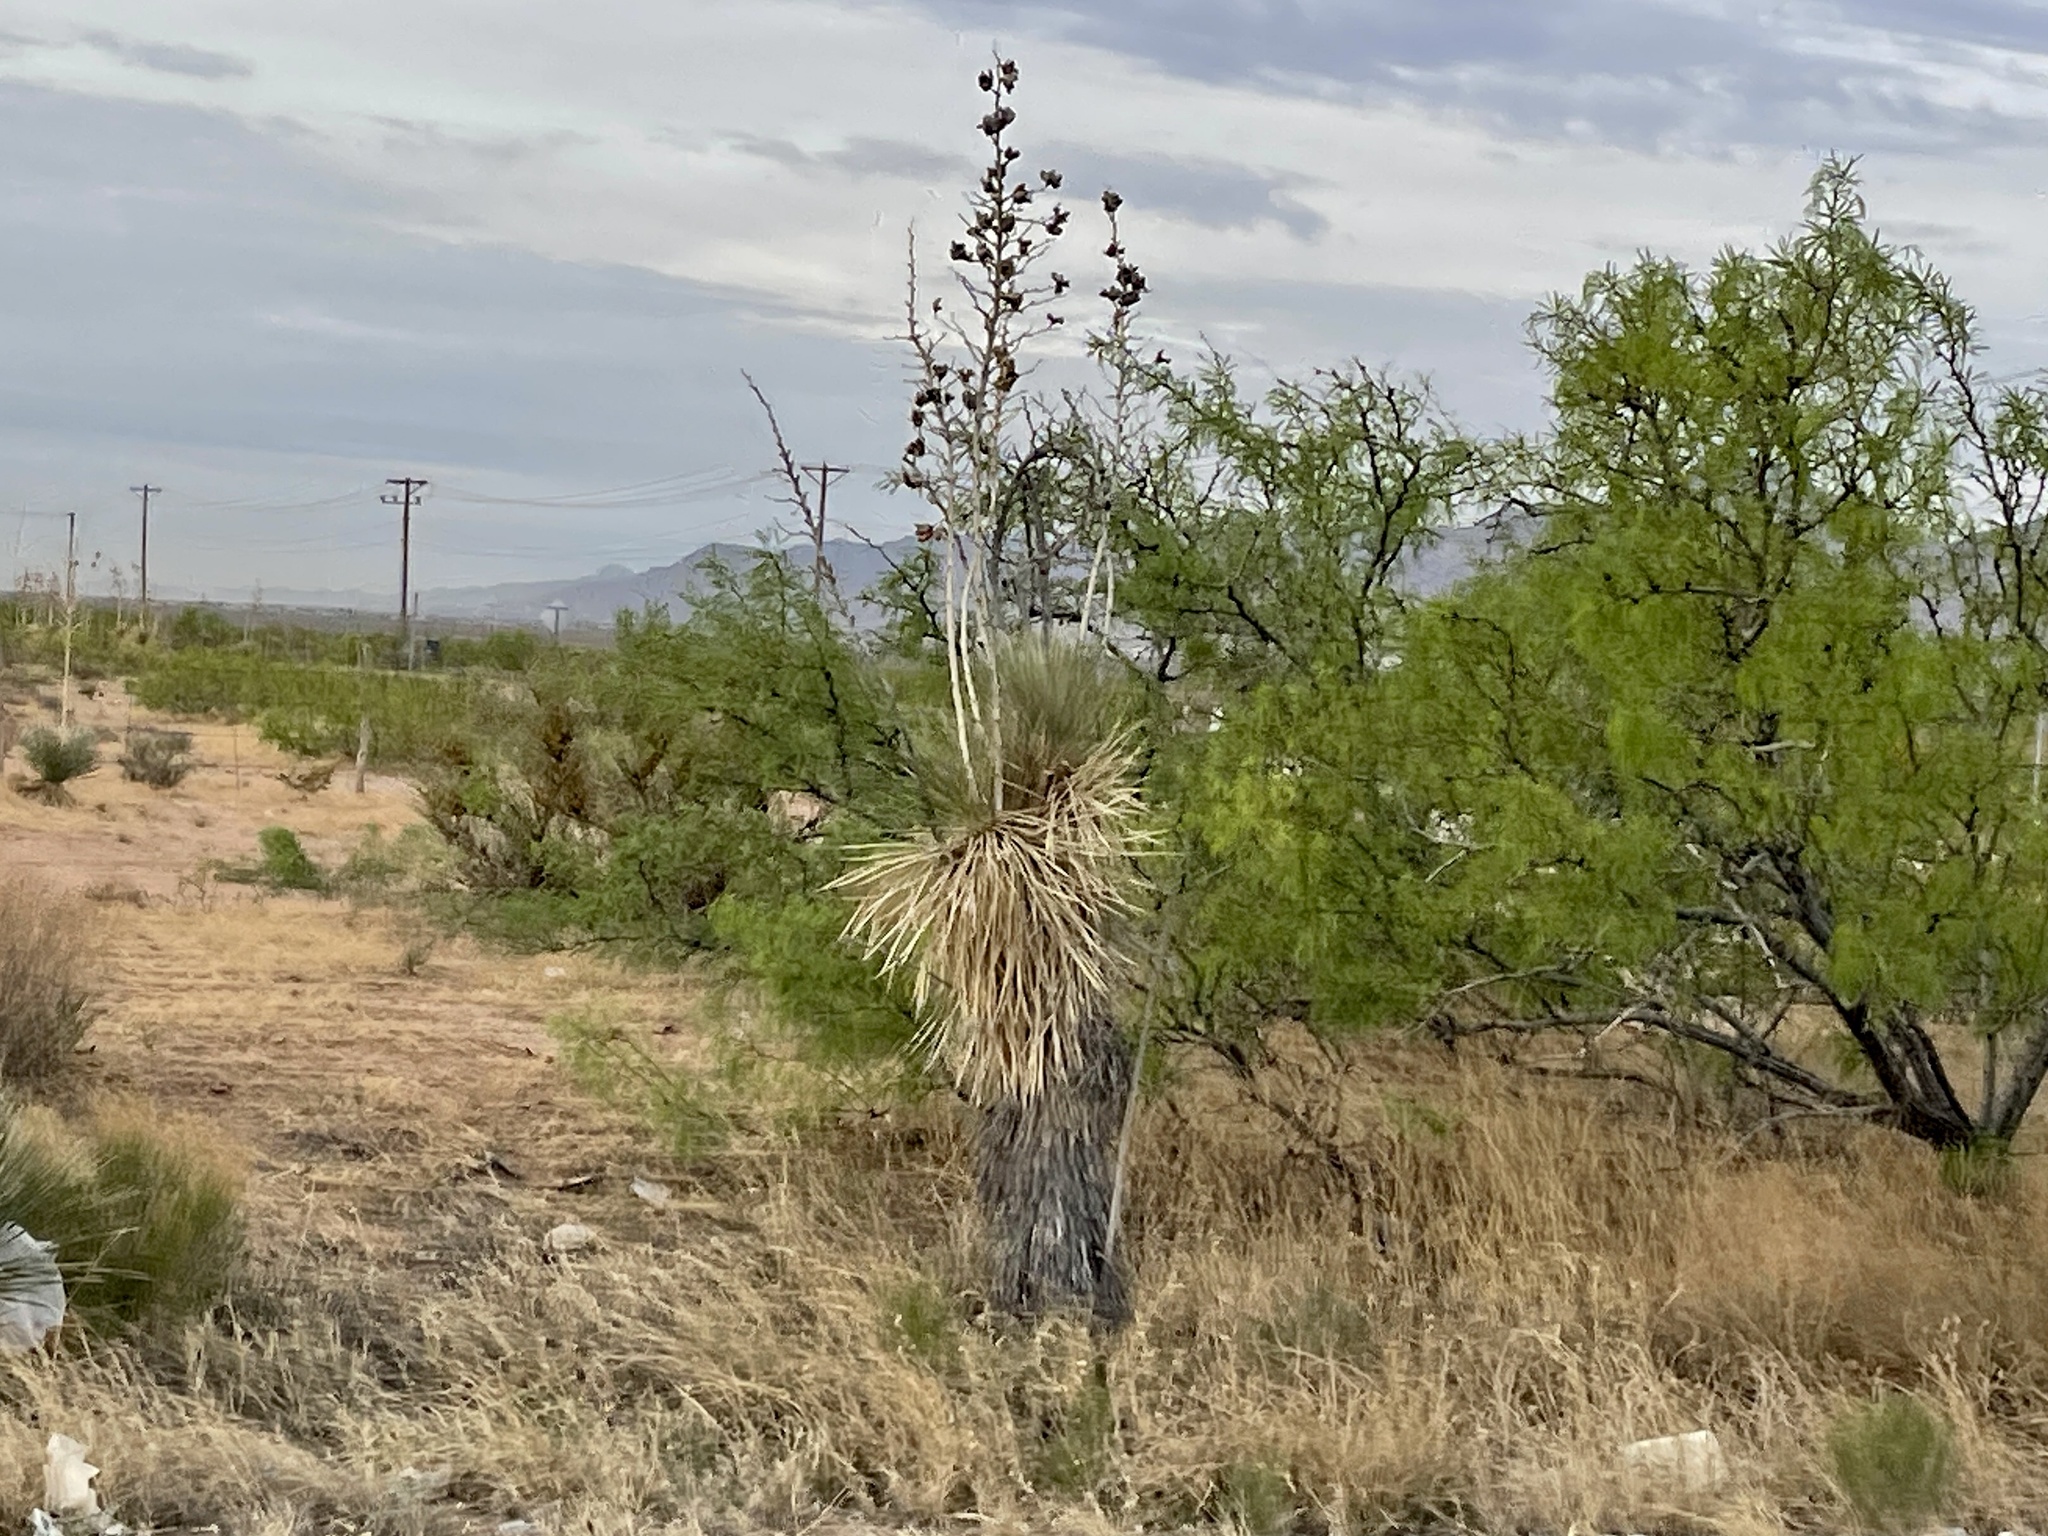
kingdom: Plantae
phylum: Tracheophyta
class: Liliopsida
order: Asparagales
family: Asparagaceae
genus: Yucca
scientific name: Yucca elata
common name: Palmella
